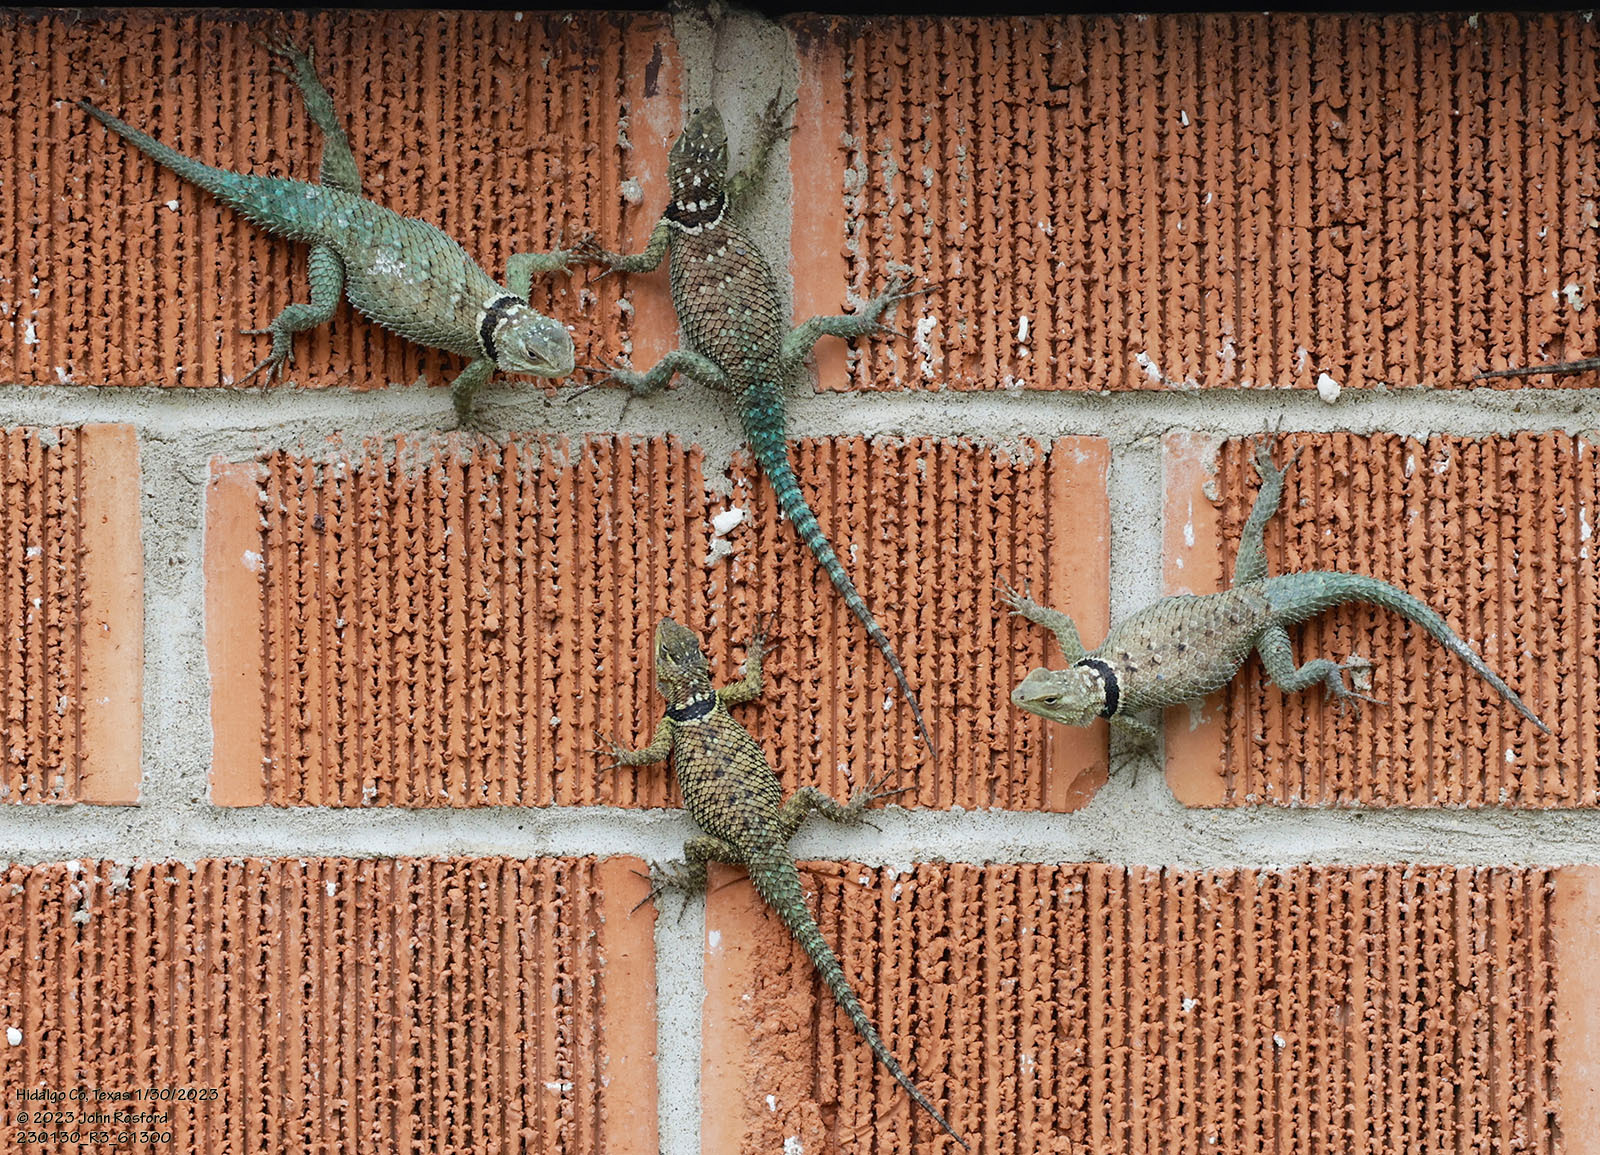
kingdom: Animalia
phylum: Chordata
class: Squamata
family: Phrynosomatidae
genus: Sceloporus
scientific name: Sceloporus cyanogenys
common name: Blue spiny lizard
